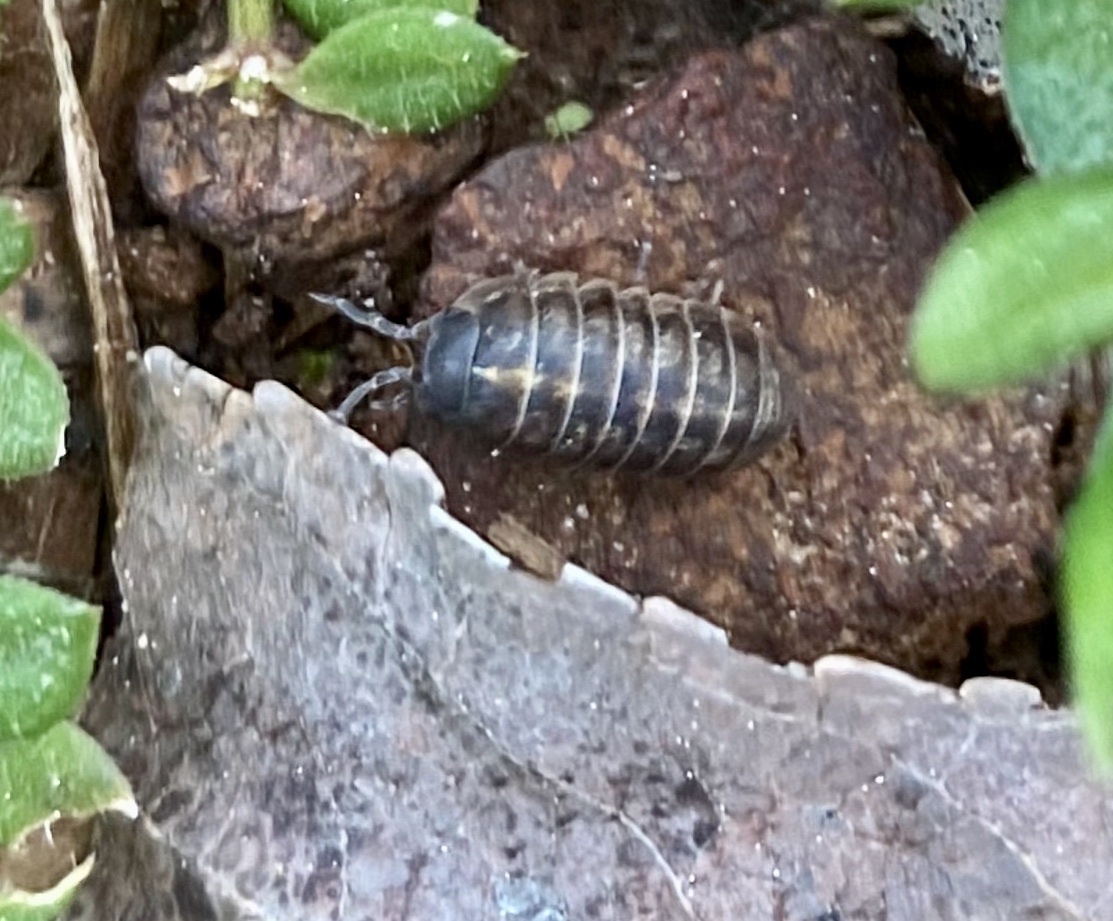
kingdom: Animalia
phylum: Arthropoda
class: Malacostraca
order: Isopoda
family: Armadillidiidae
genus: Armadillidium
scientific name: Armadillidium vulgare
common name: Common pill woodlouse
